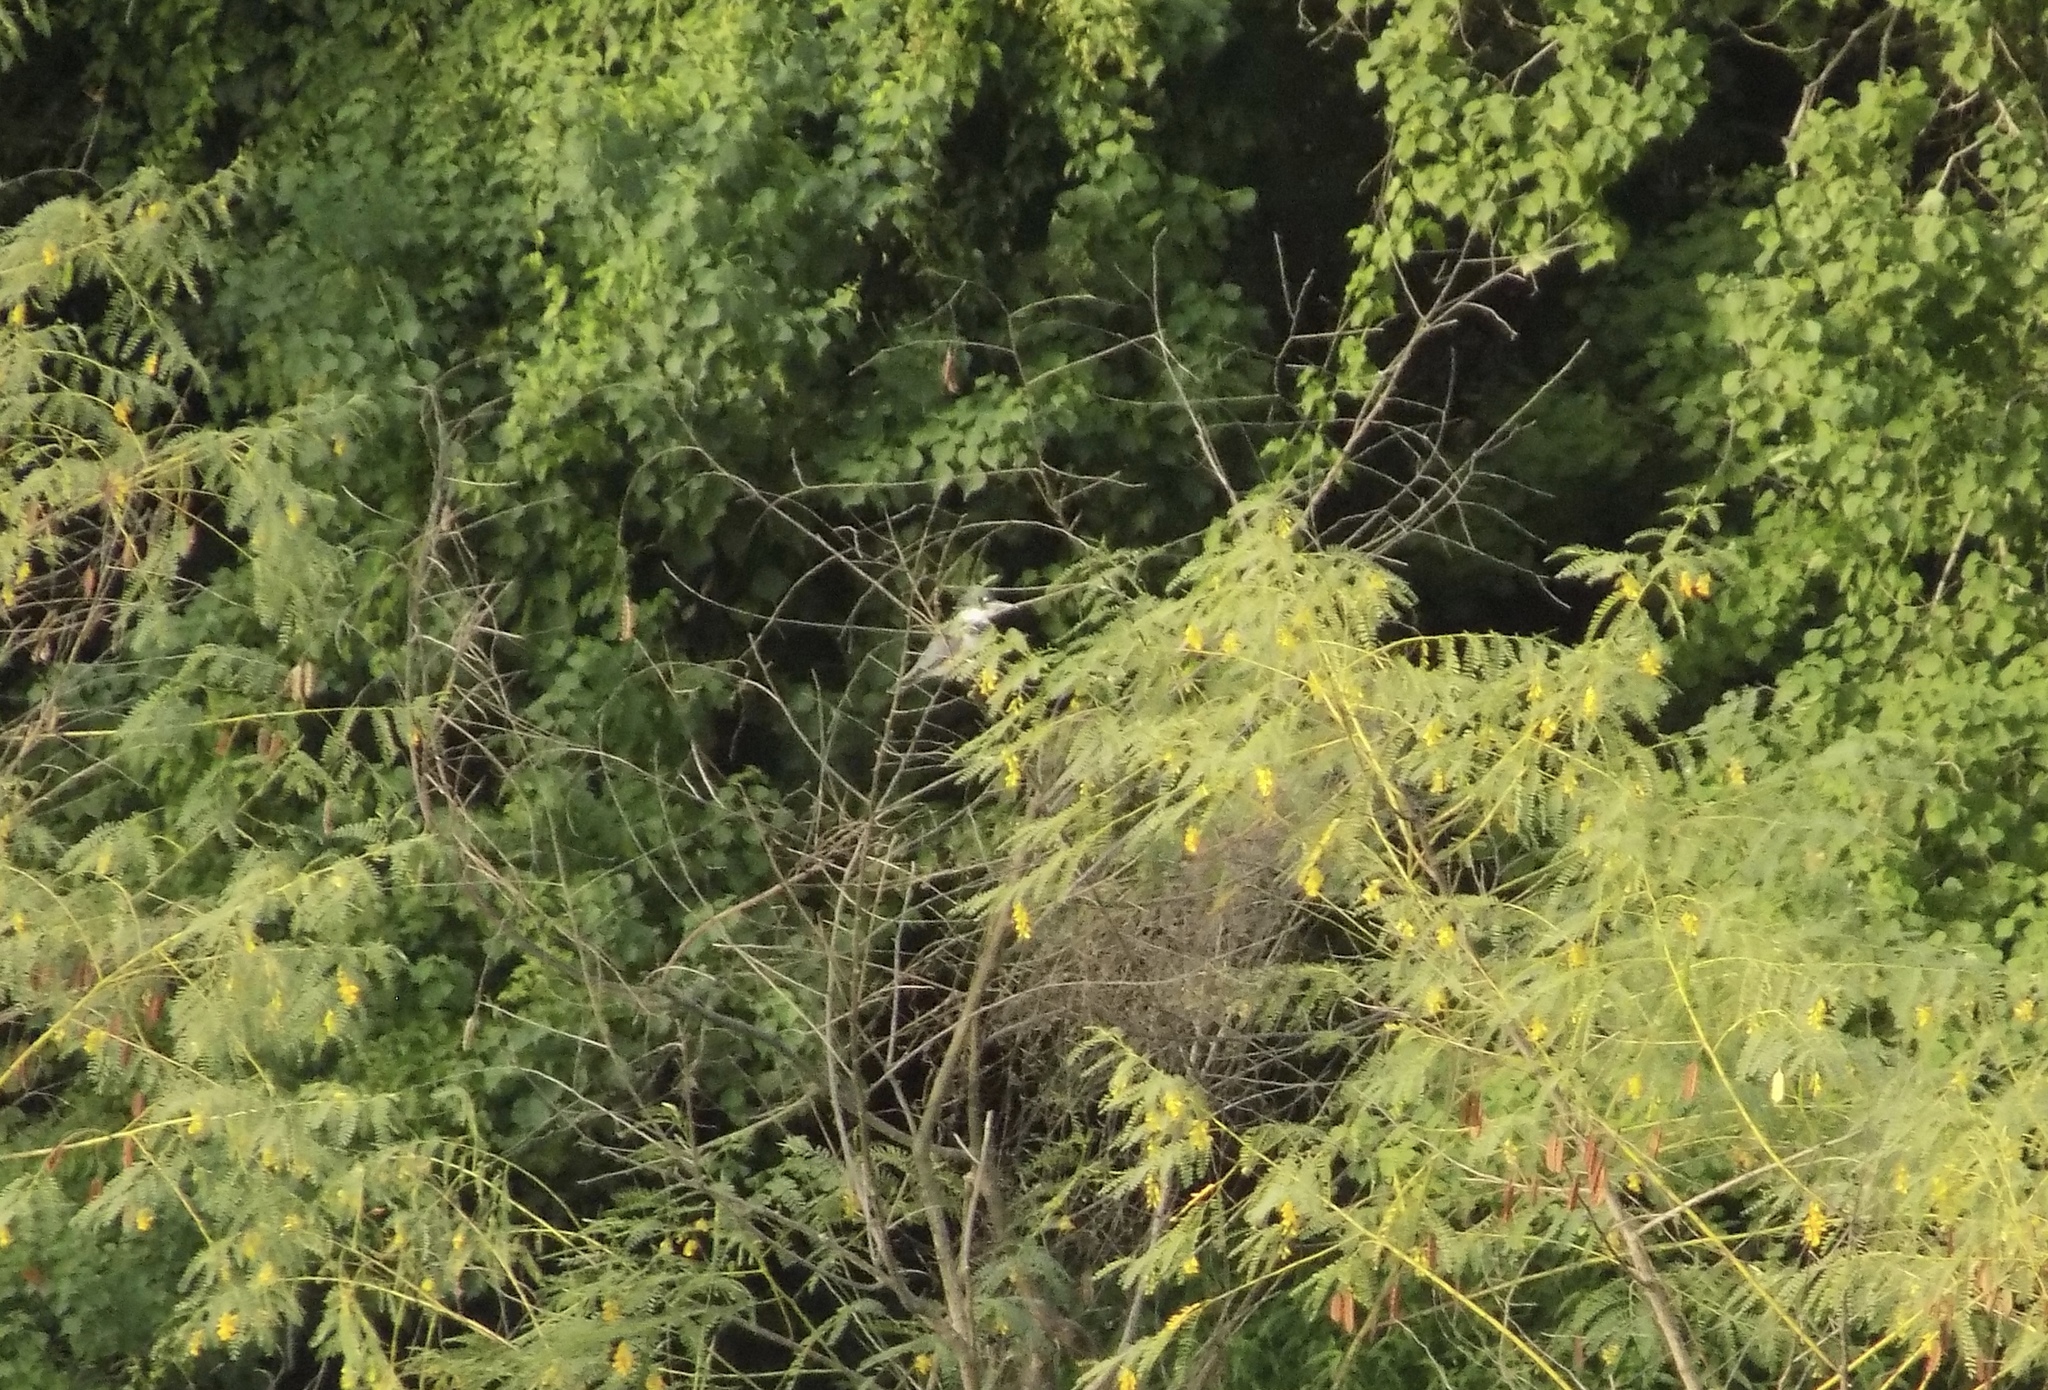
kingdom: Animalia
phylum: Chordata
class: Aves
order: Coraciiformes
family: Alcedinidae
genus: Megaceryle
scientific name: Megaceryle alcyon
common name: Belted kingfisher
